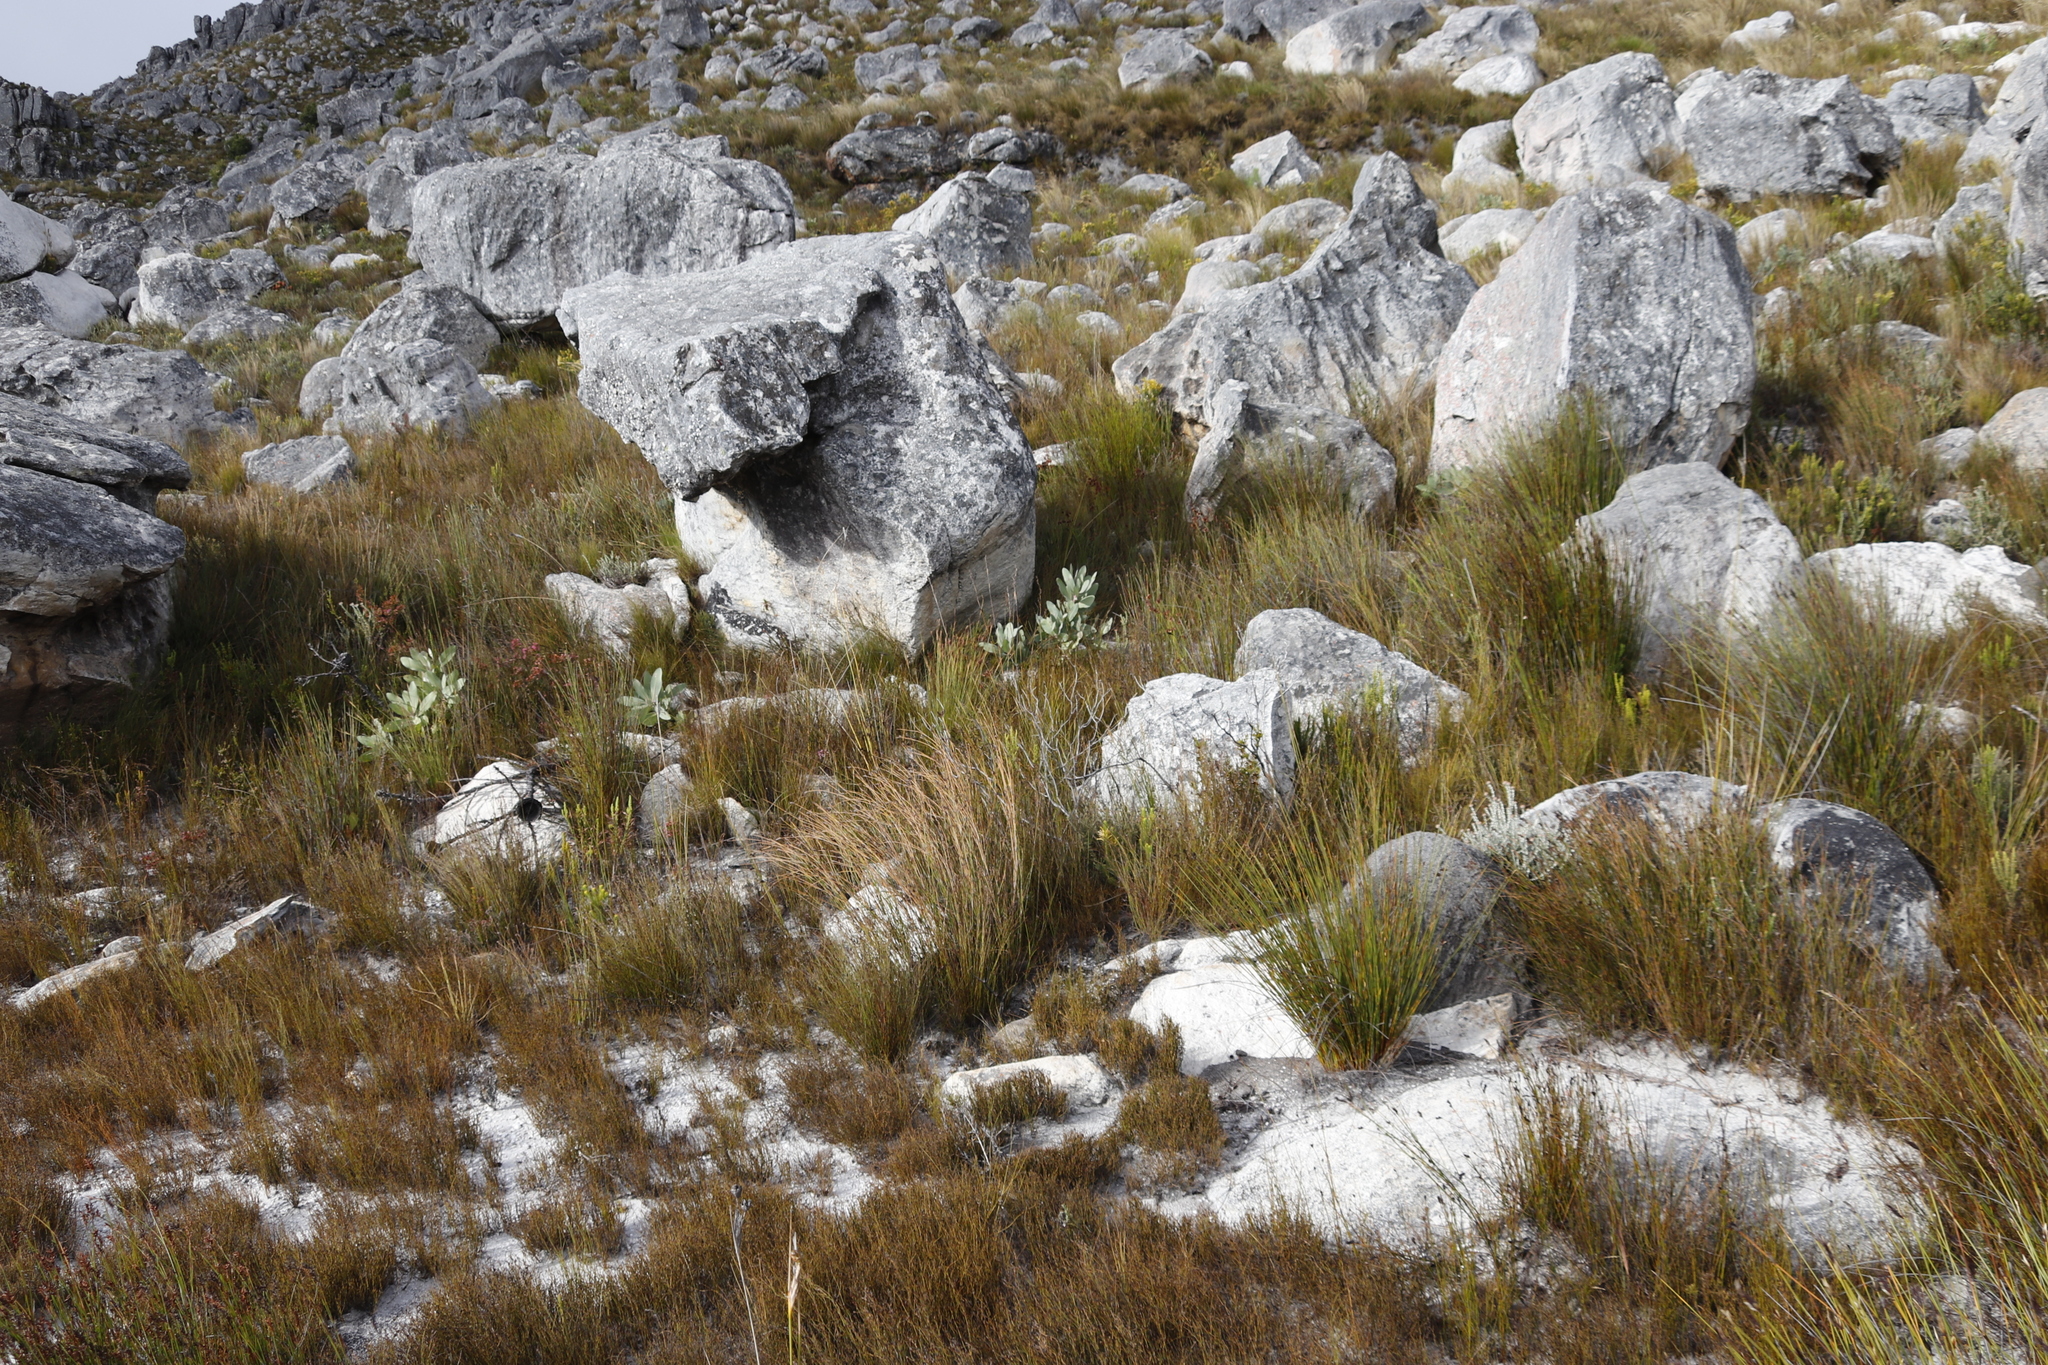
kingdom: Plantae
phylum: Tracheophyta
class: Magnoliopsida
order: Proteales
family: Proteaceae
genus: Protea
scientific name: Protea magnifica
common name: Bearded sugarbush
